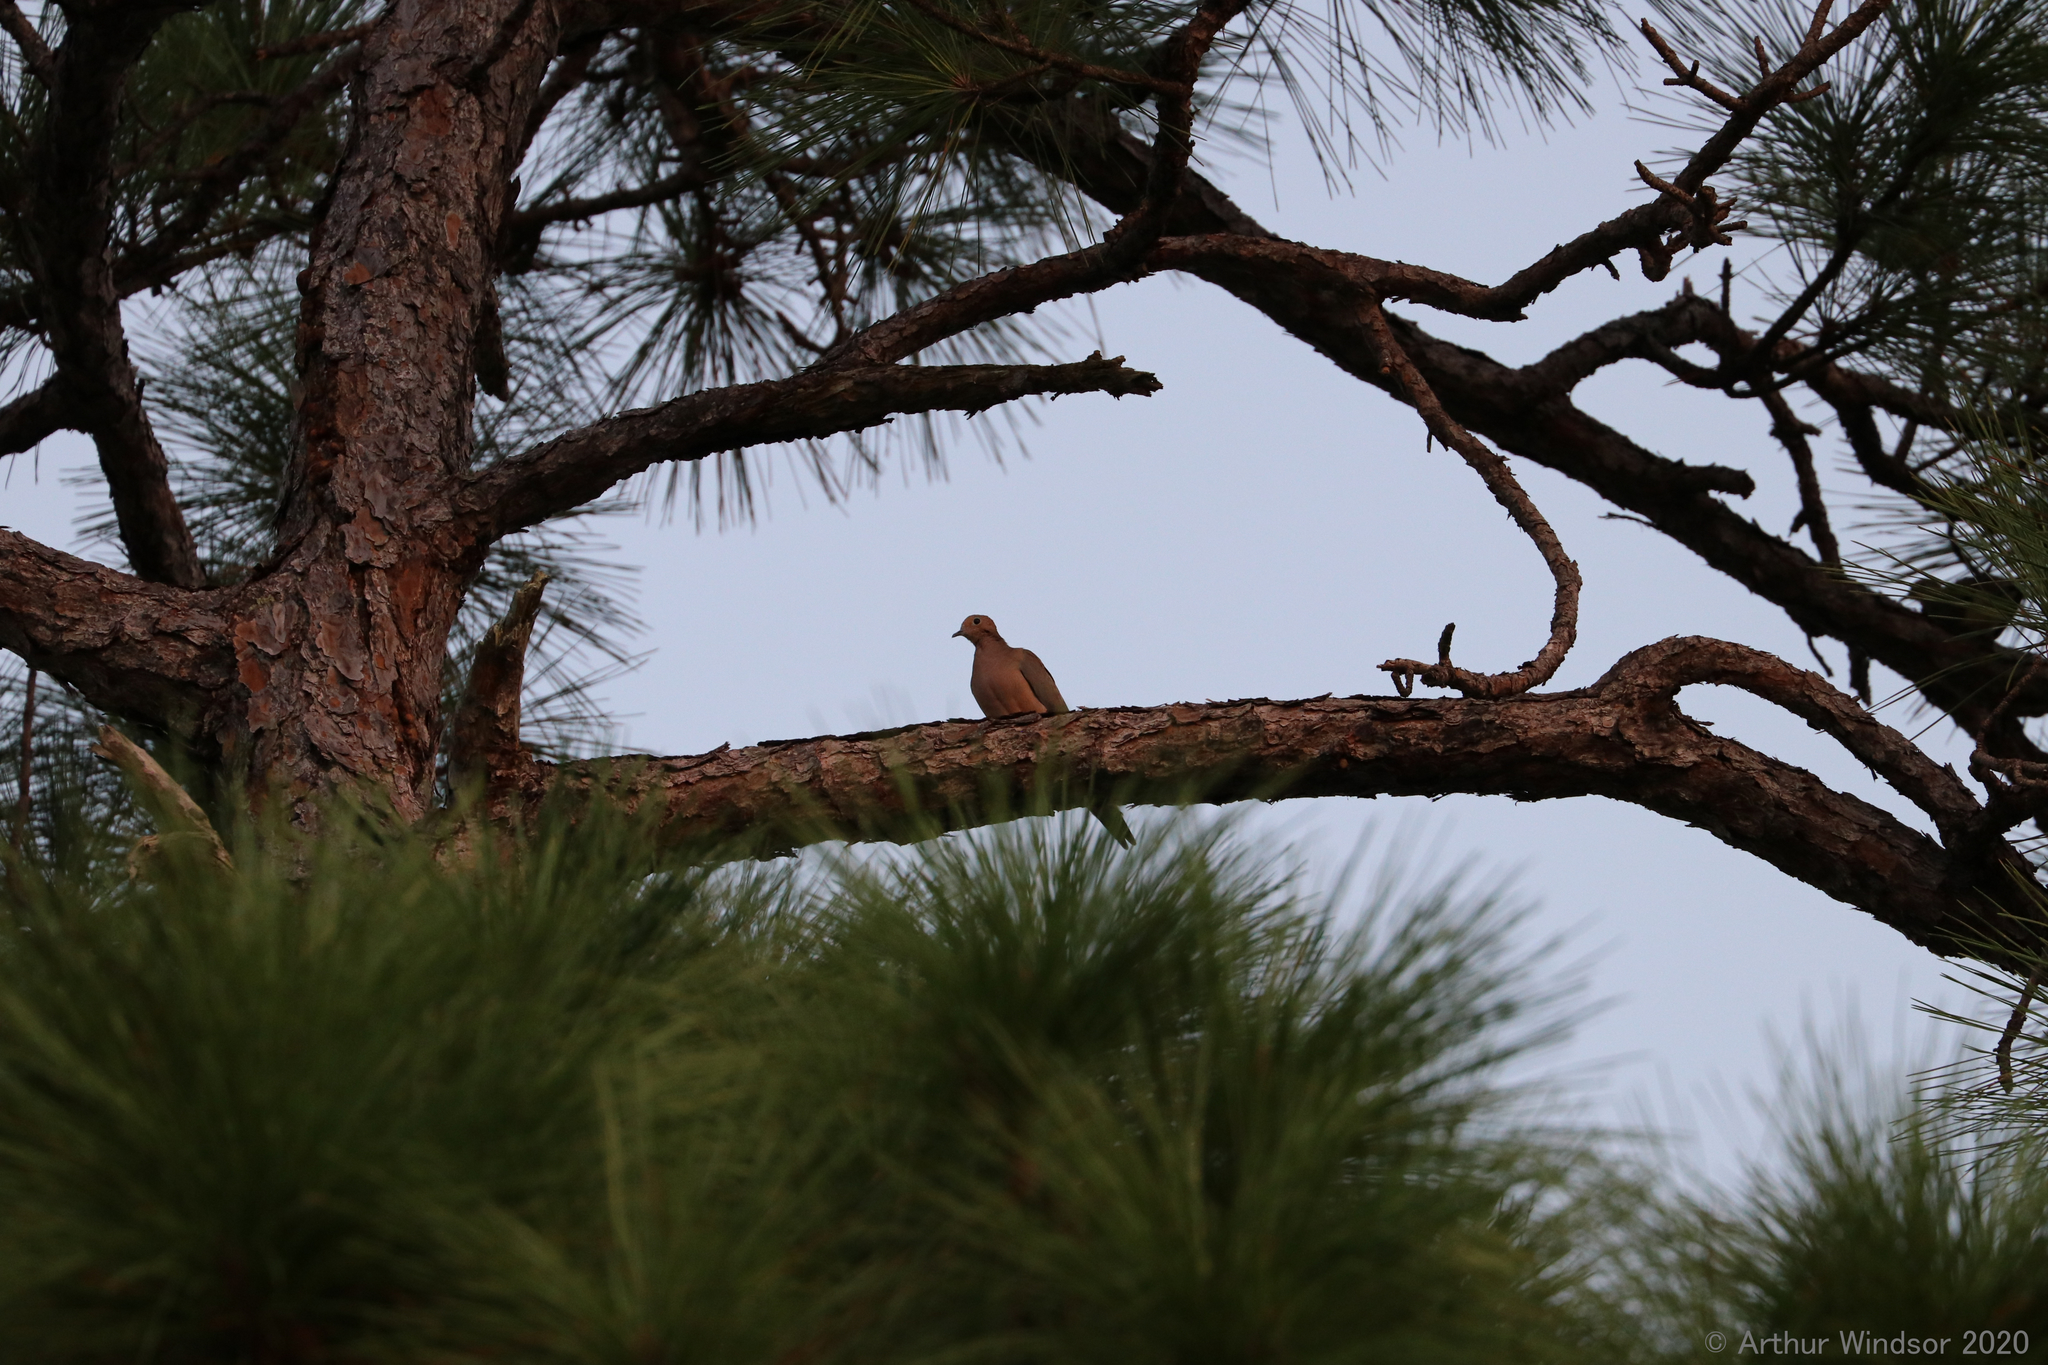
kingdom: Animalia
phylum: Chordata
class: Aves
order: Columbiformes
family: Columbidae
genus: Zenaida
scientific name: Zenaida macroura
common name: Mourning dove
